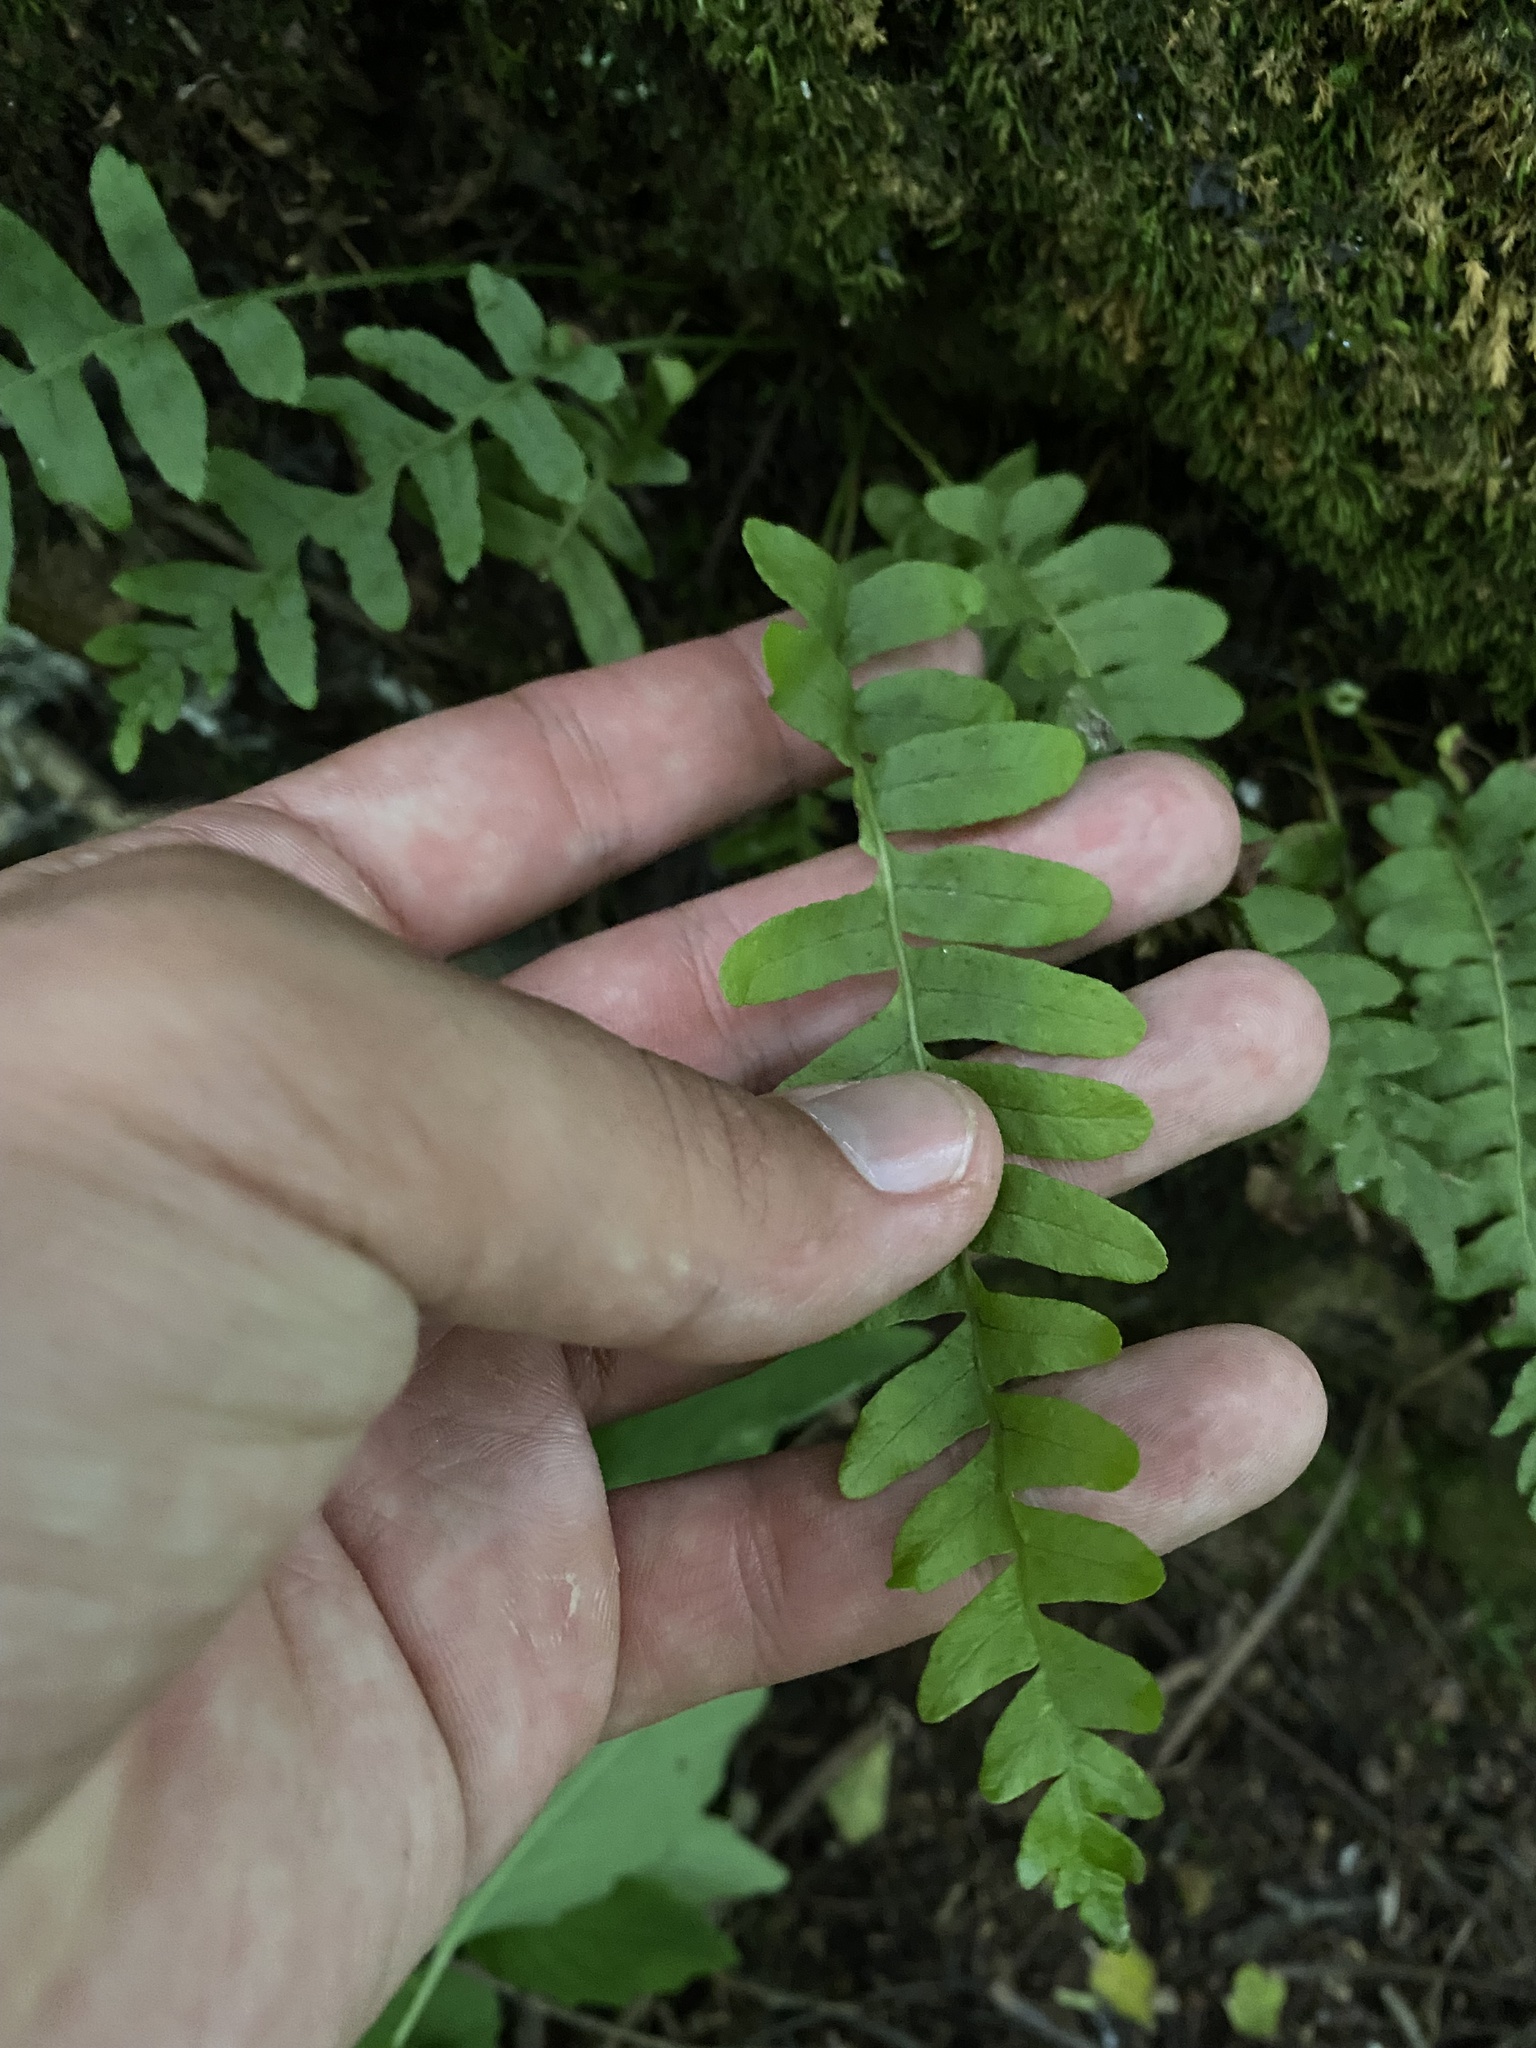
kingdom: Plantae
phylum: Tracheophyta
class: Polypodiopsida
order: Polypodiales
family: Polypodiaceae
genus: Polypodium
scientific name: Polypodium vulgare
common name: Common polypody
